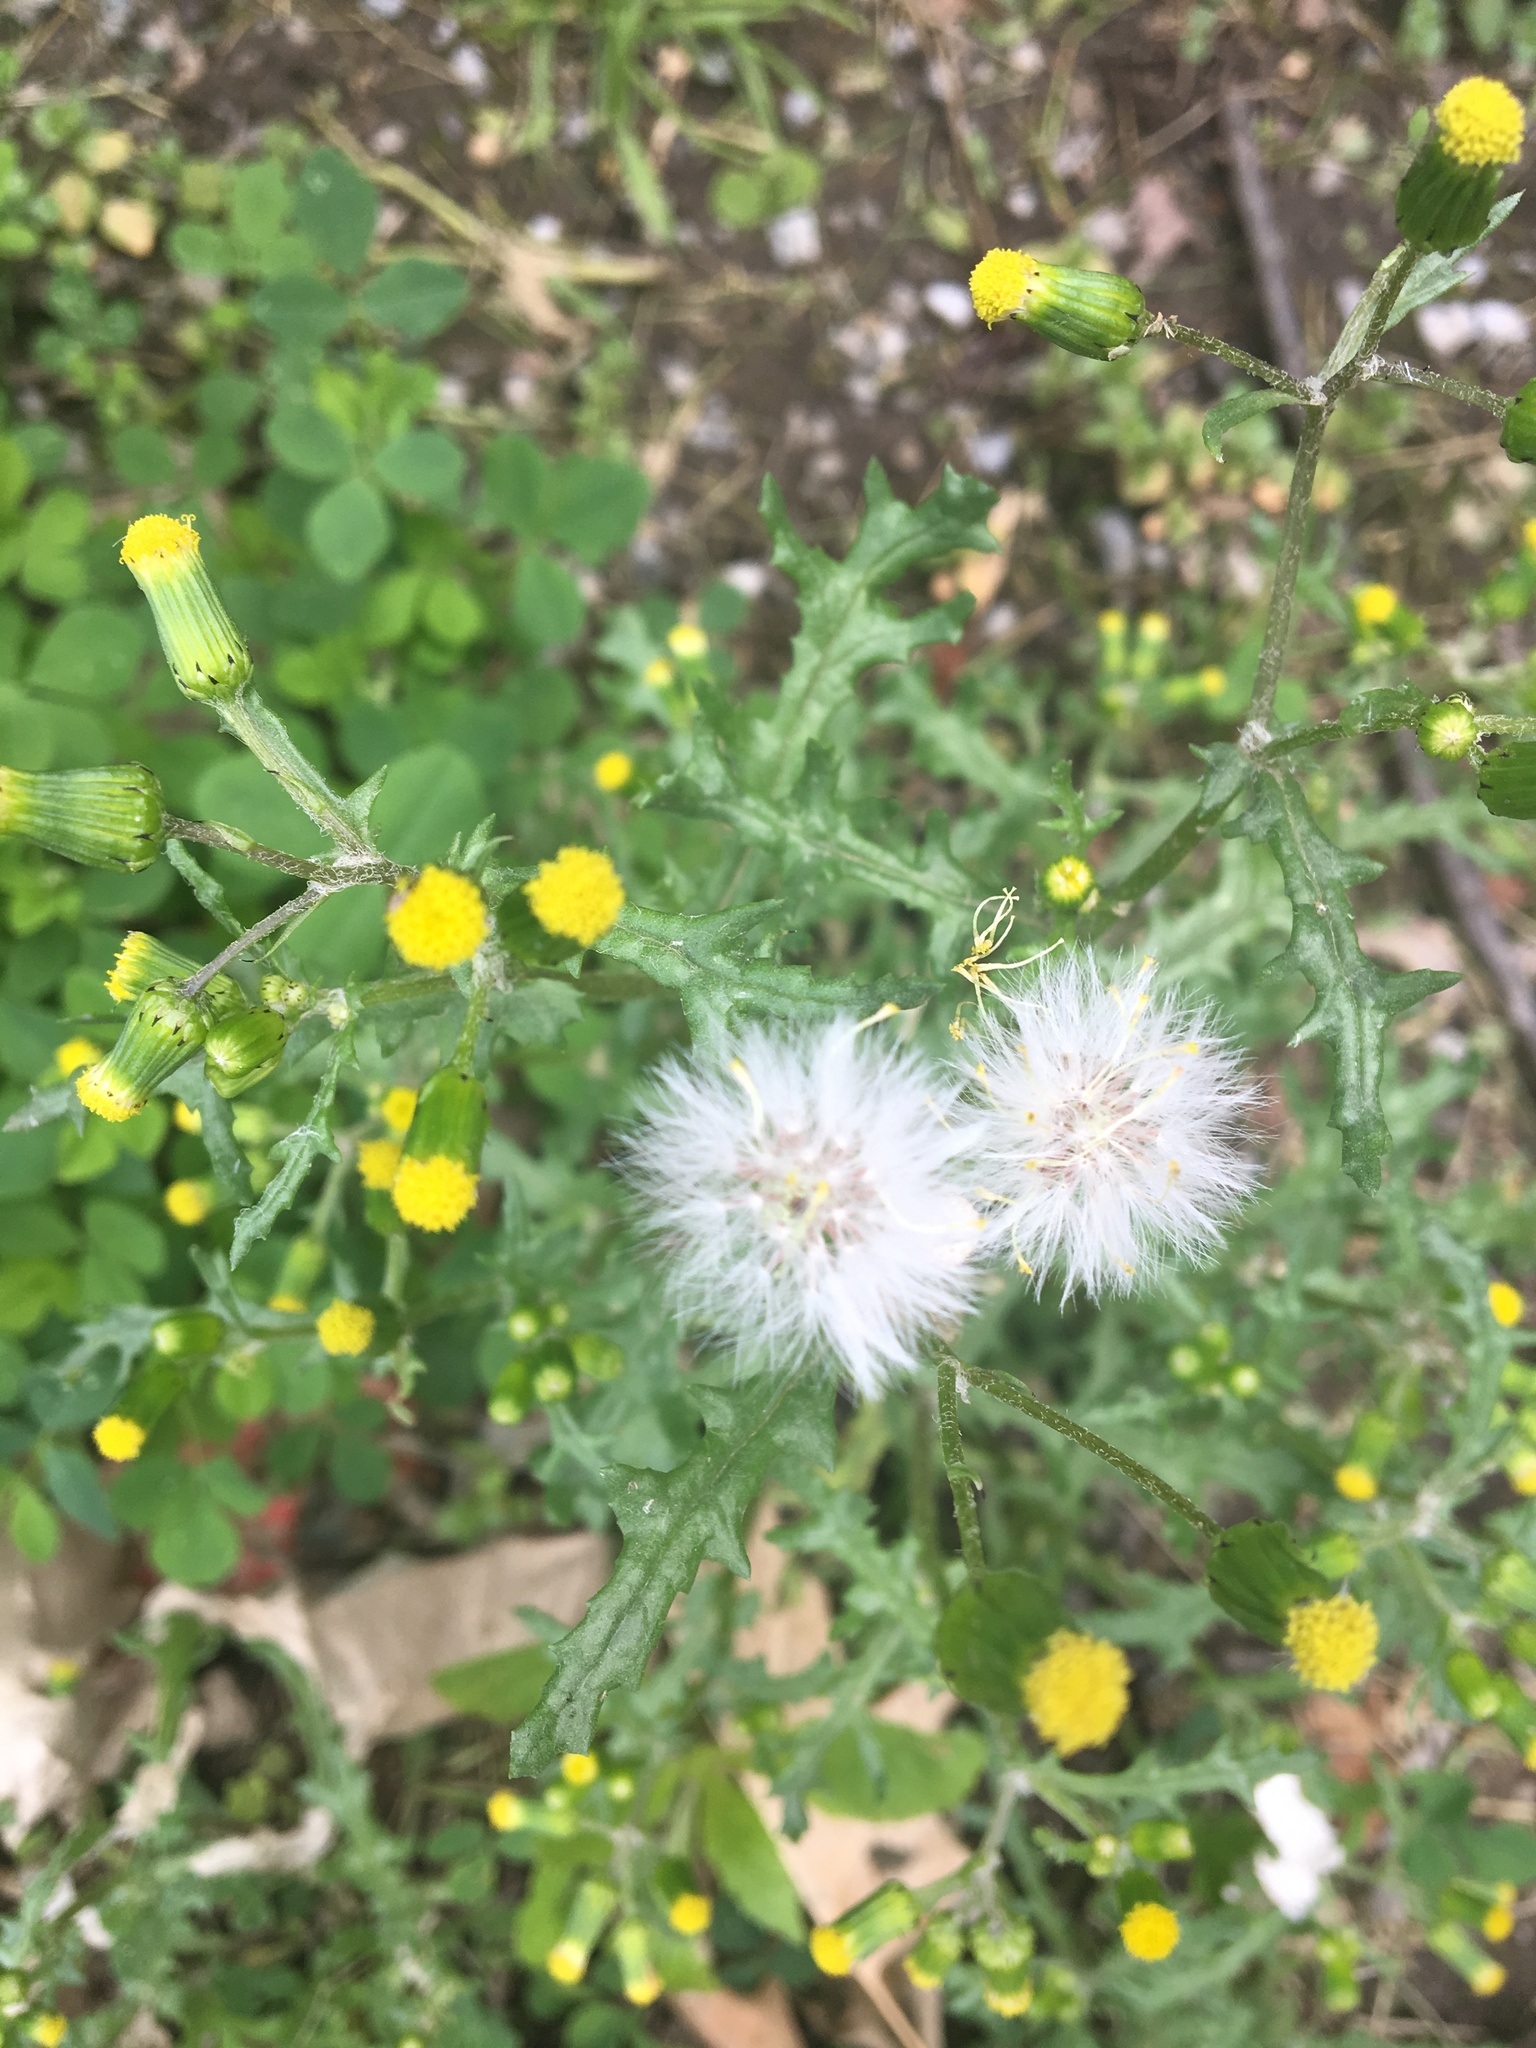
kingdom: Plantae
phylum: Tracheophyta
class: Magnoliopsida
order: Asterales
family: Asteraceae
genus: Senecio
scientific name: Senecio vulgaris
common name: Old-man-in-the-spring
